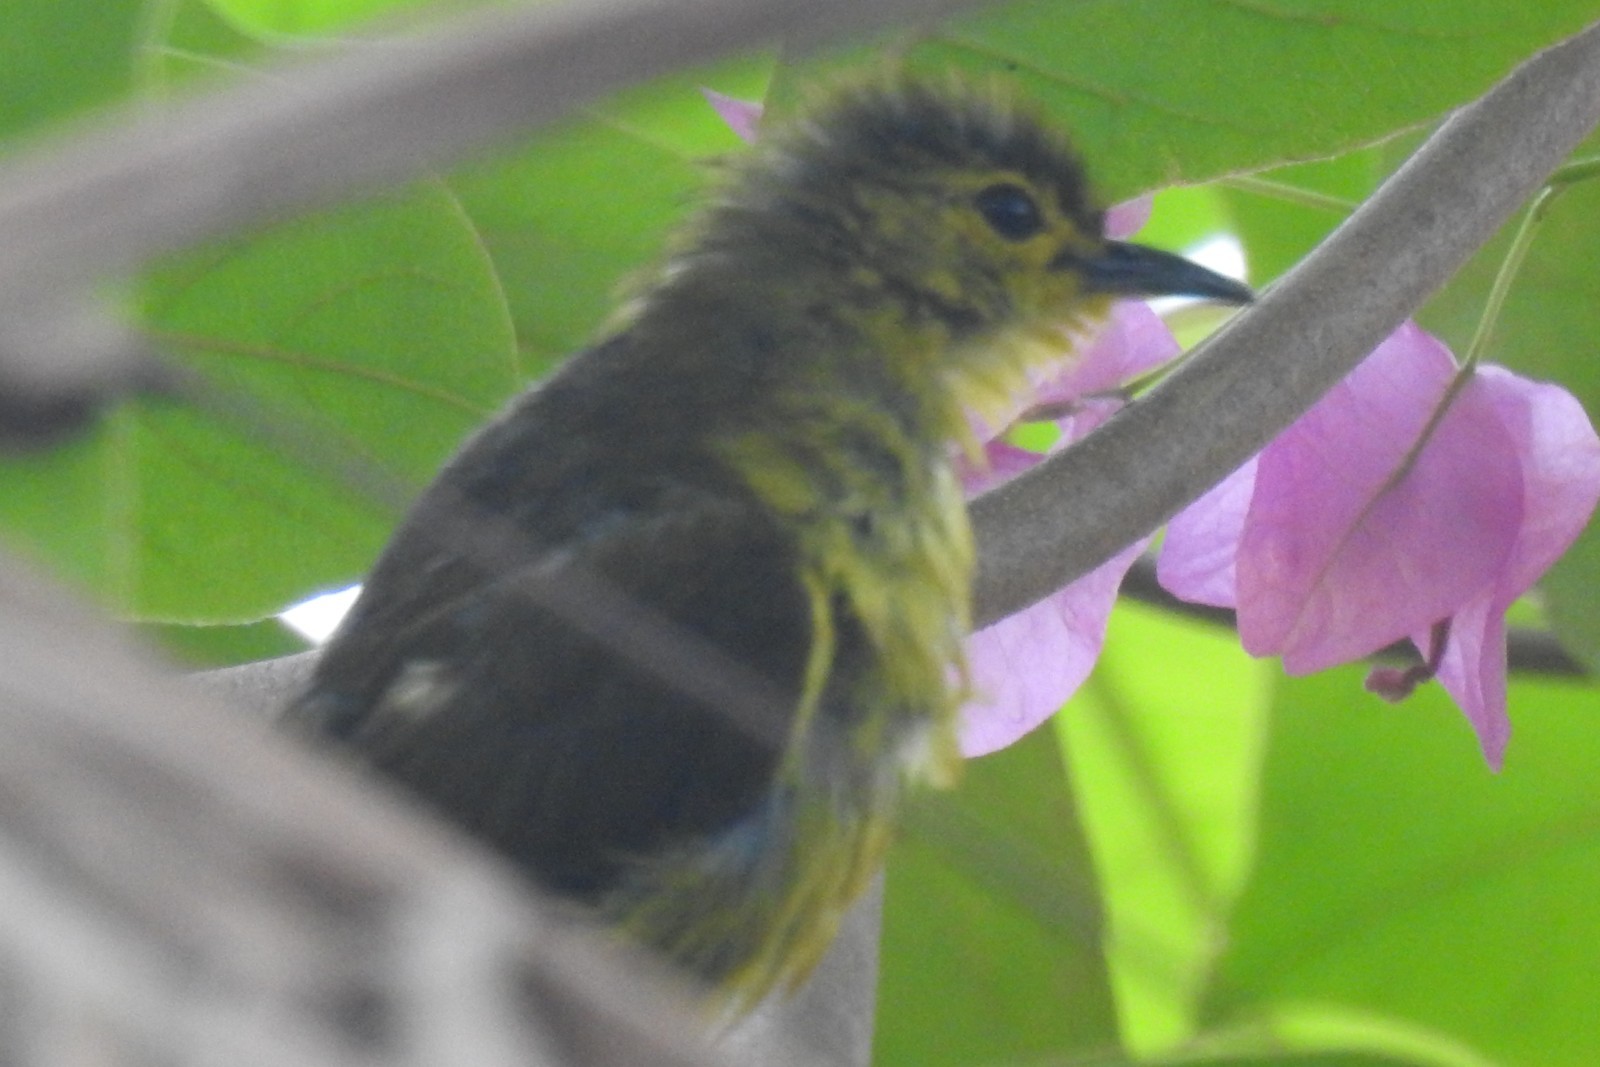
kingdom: Animalia
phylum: Chordata
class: Aves
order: Passeriformes
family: Pycnonotidae
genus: Acritillas
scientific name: Acritillas indica
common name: Yellow-browed bulbul
